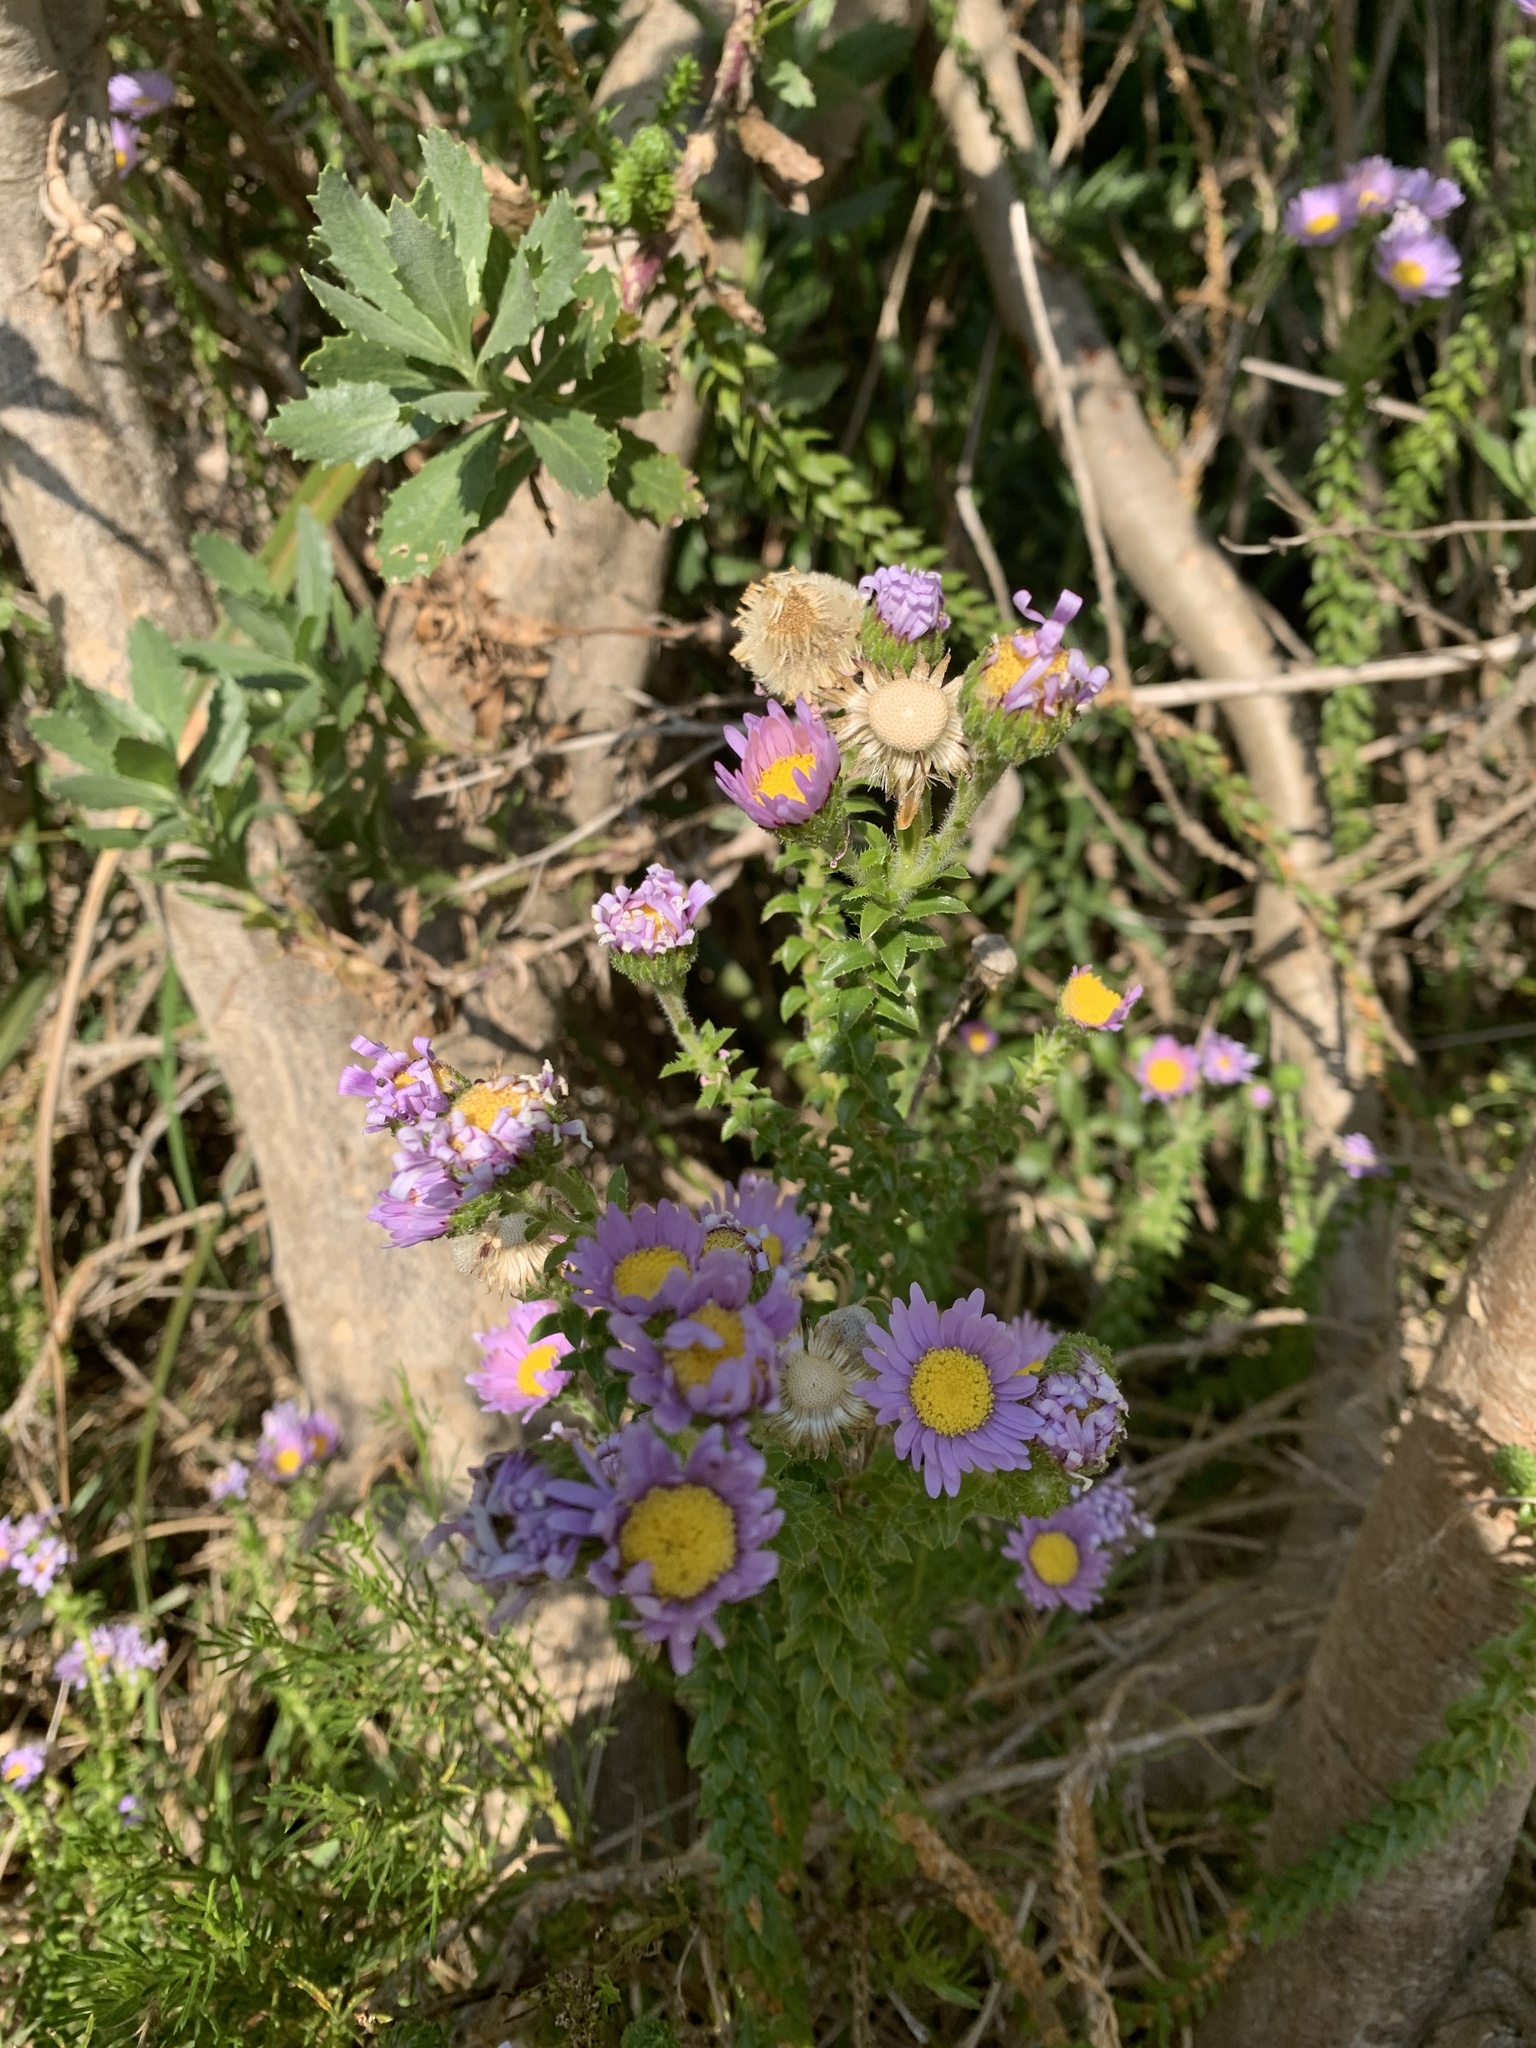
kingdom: Plantae
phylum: Tracheophyta
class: Magnoliopsida
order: Asterales
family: Asteraceae
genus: Felicia
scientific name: Felicia echinata
